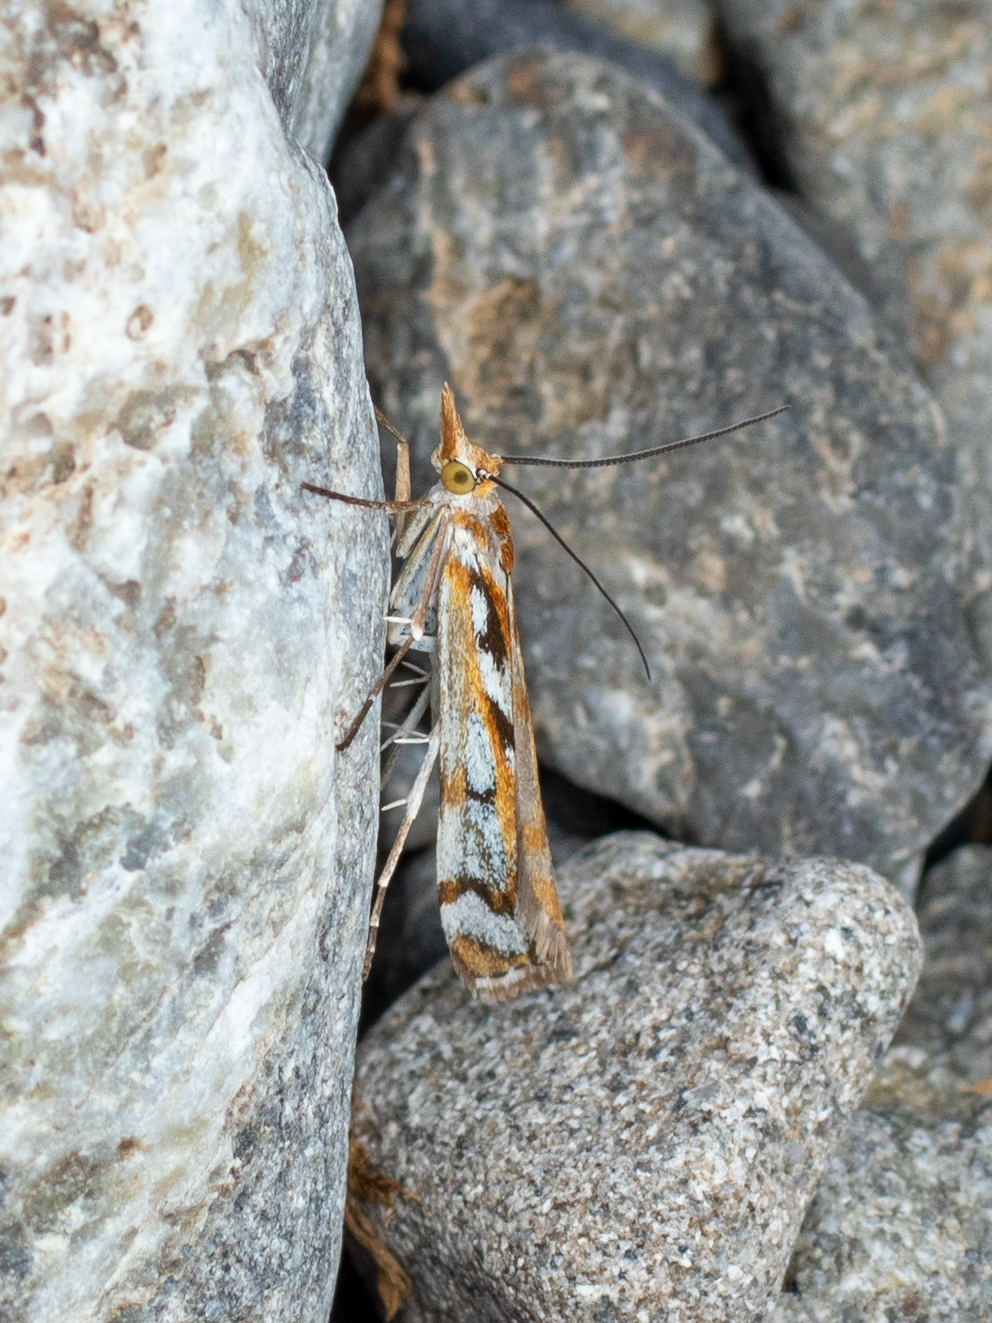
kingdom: Animalia
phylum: Arthropoda
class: Insecta
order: Lepidoptera
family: Crambidae
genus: Orocrambus
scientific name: Orocrambus xanthogrammus
